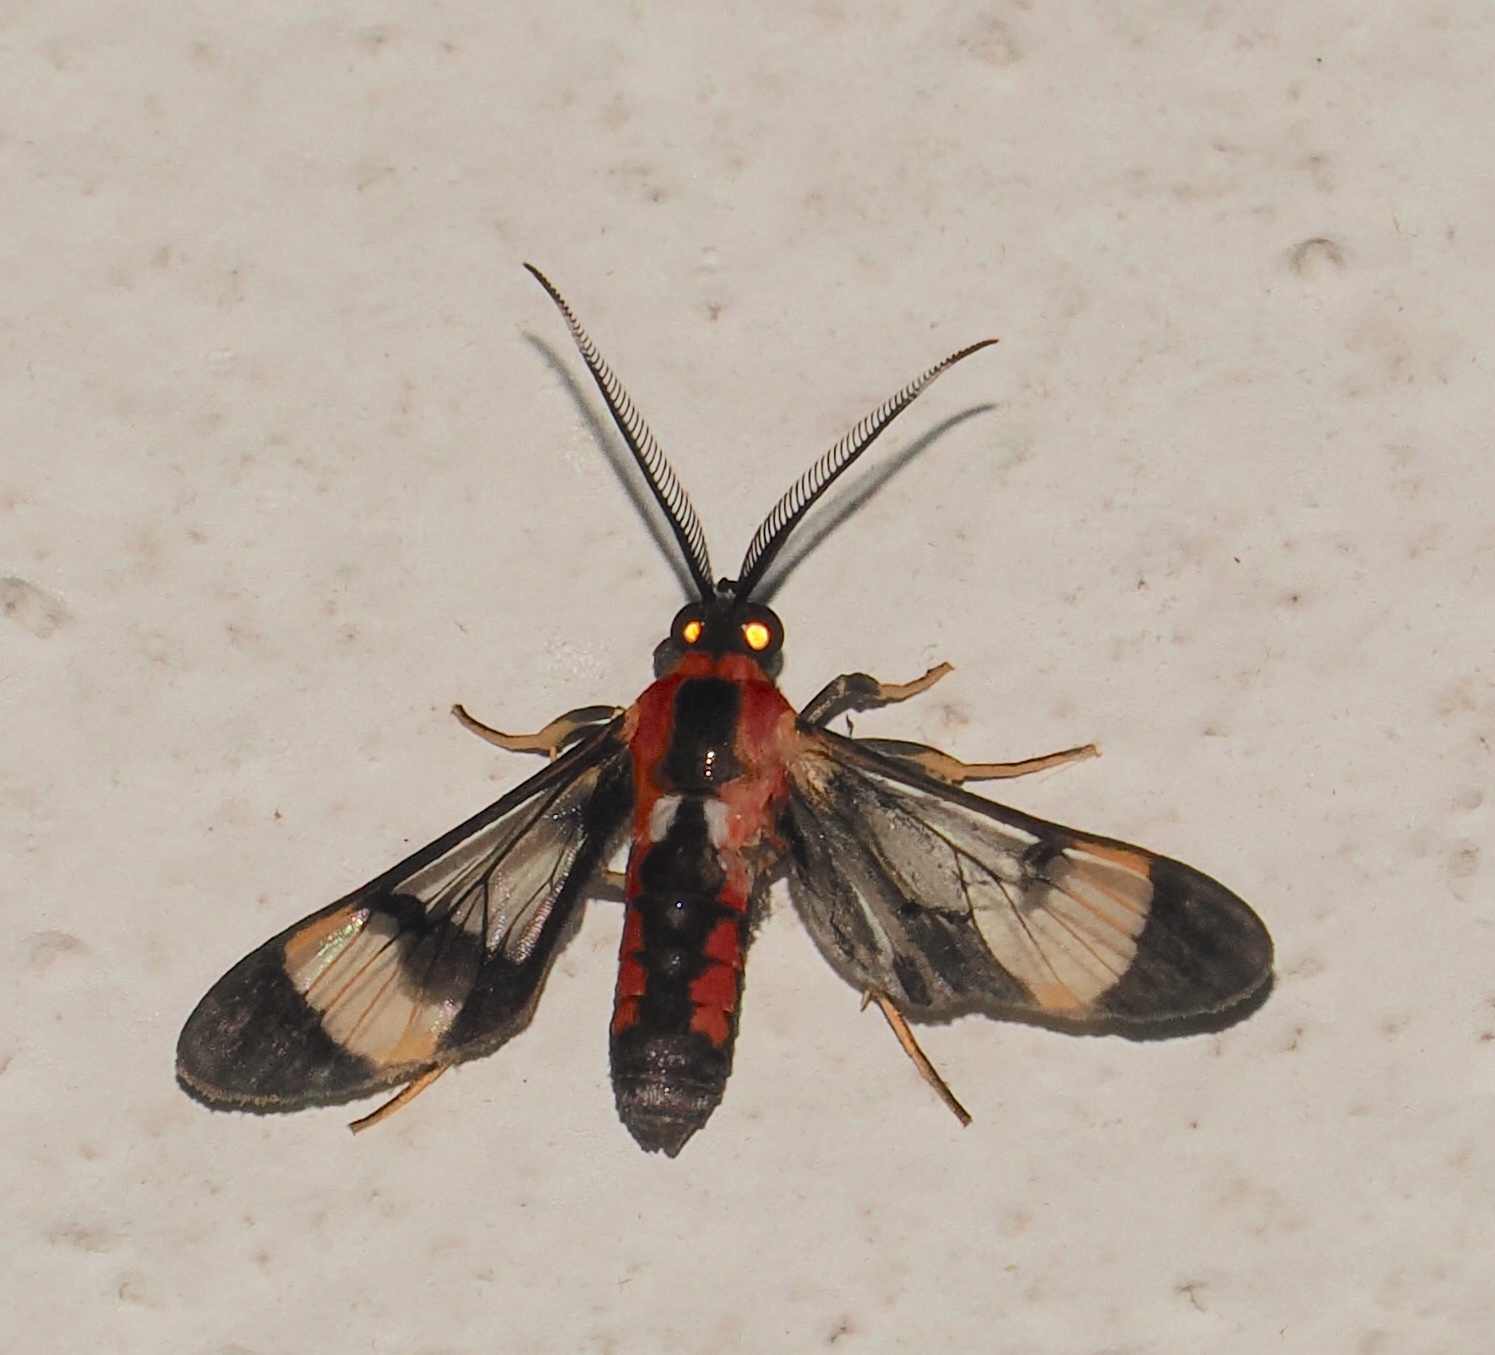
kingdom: Animalia
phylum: Arthropoda
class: Insecta
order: Lepidoptera
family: Erebidae
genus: Loxophlebia
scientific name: Loxophlebia picta
